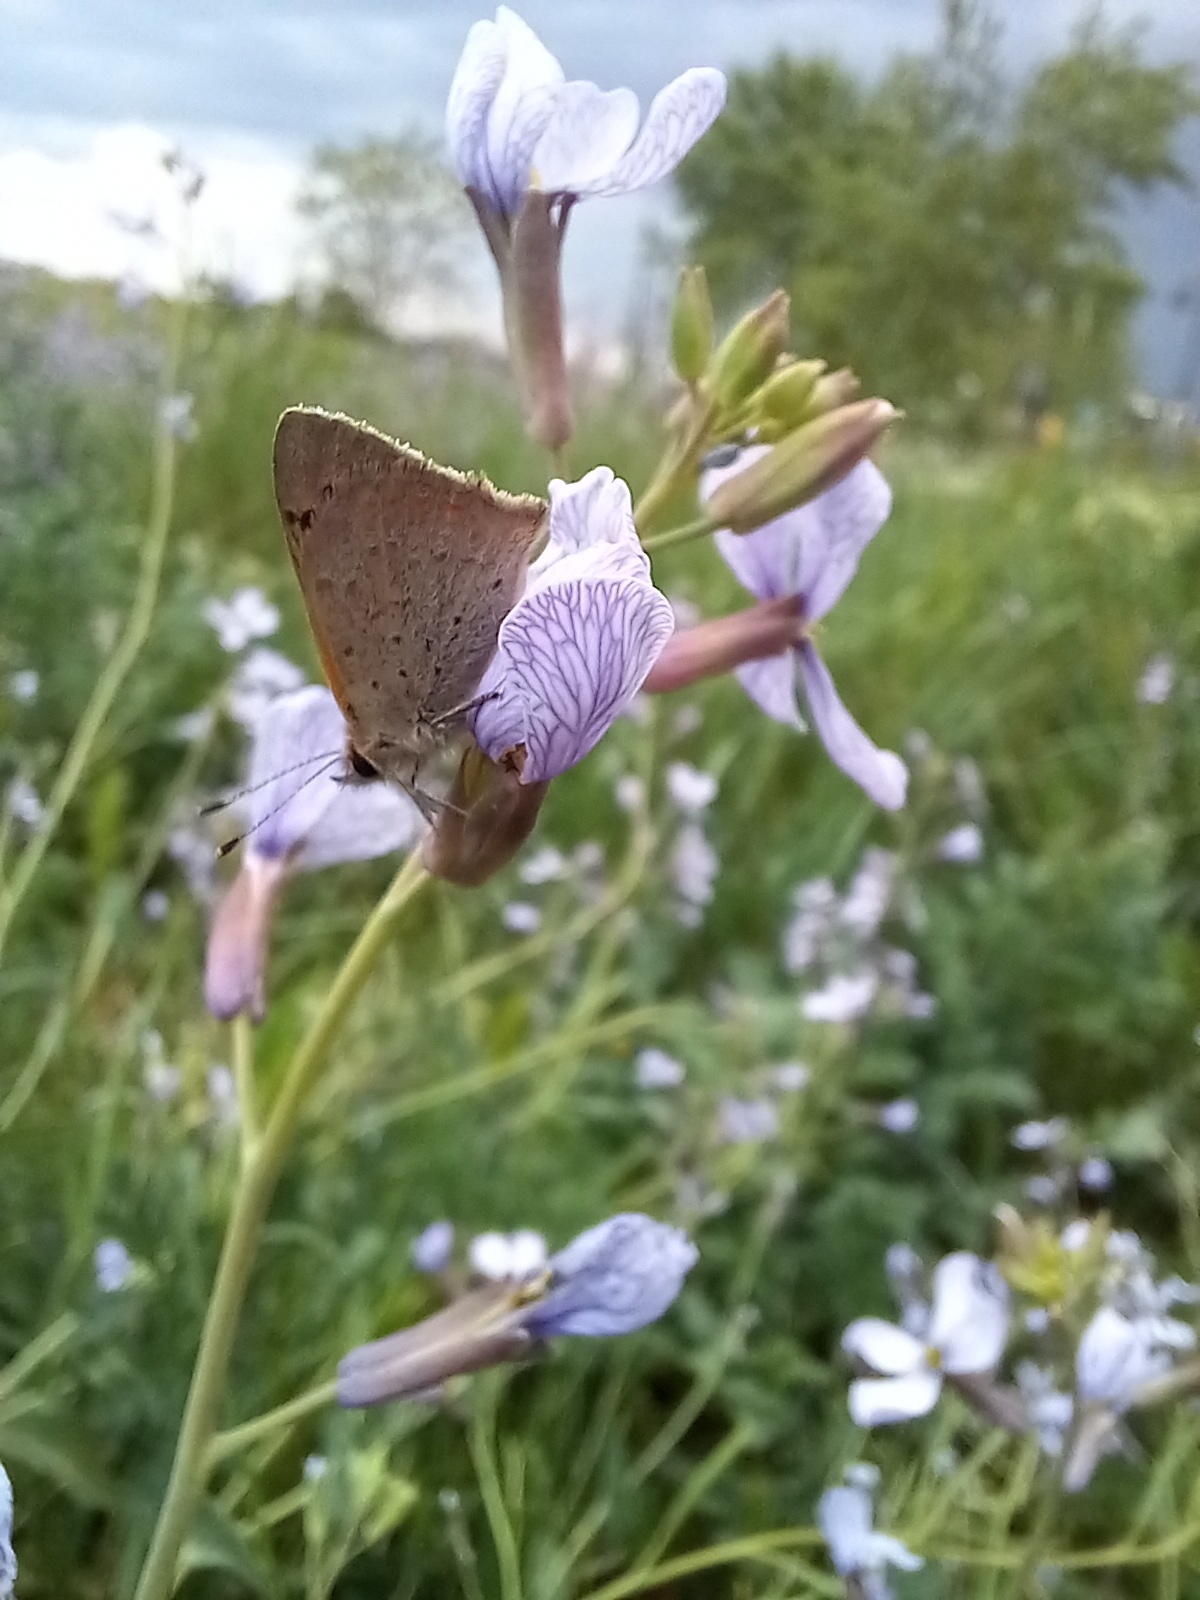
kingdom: Animalia
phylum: Arthropoda
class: Insecta
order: Lepidoptera
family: Lycaenidae
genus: Lycaena
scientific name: Lycaena phlaeas
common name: Small copper
